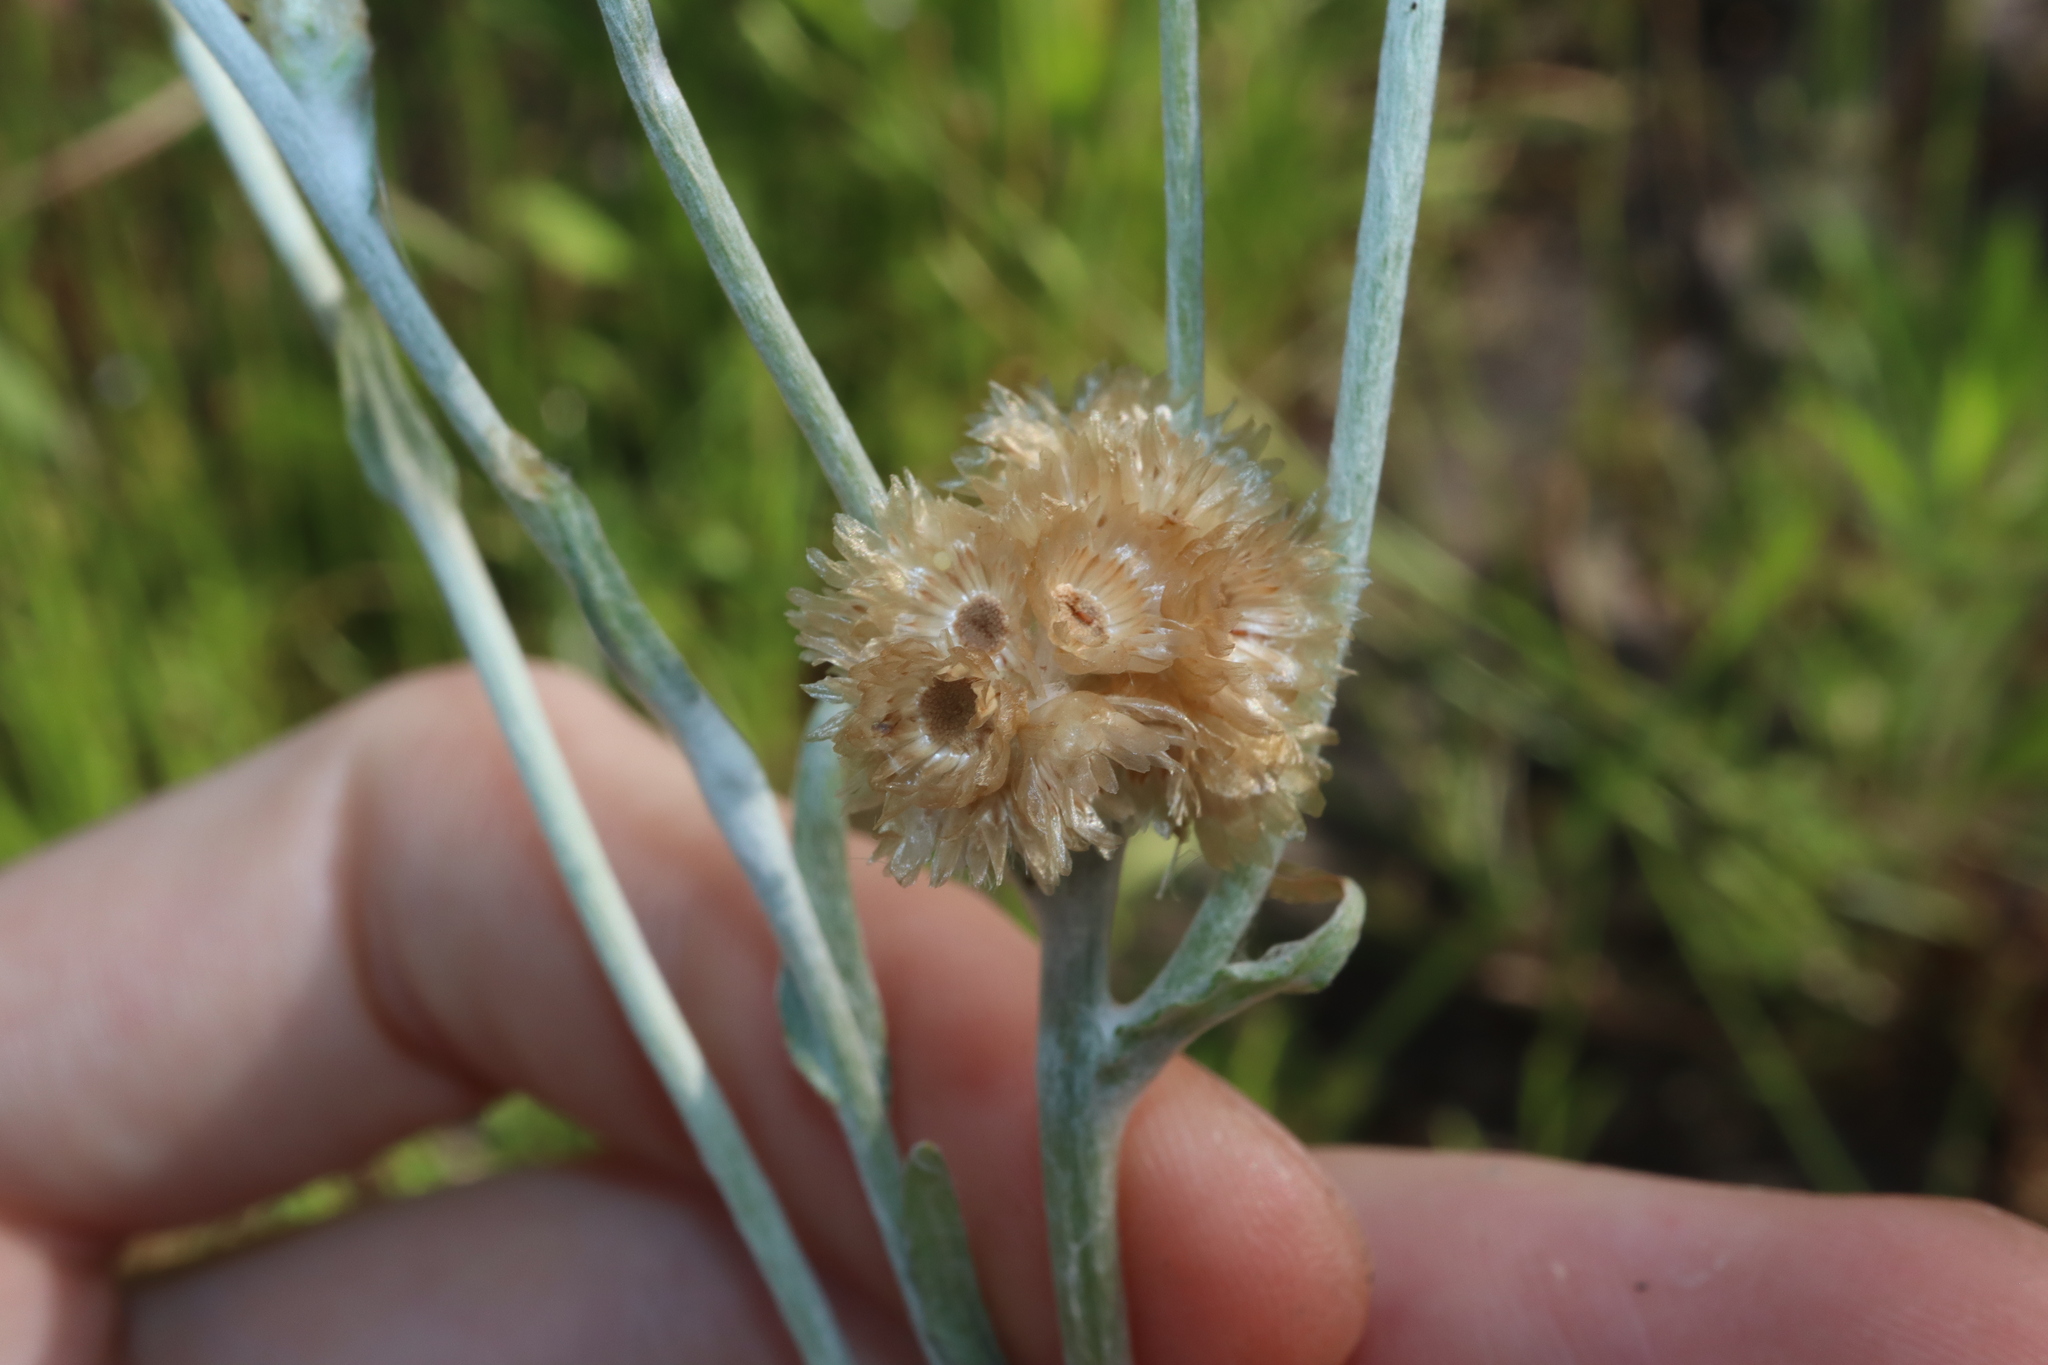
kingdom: Plantae
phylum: Tracheophyta
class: Magnoliopsida
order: Asterales
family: Asteraceae
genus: Helichrysum
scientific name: Helichrysum luteoalbum
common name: Daisy
